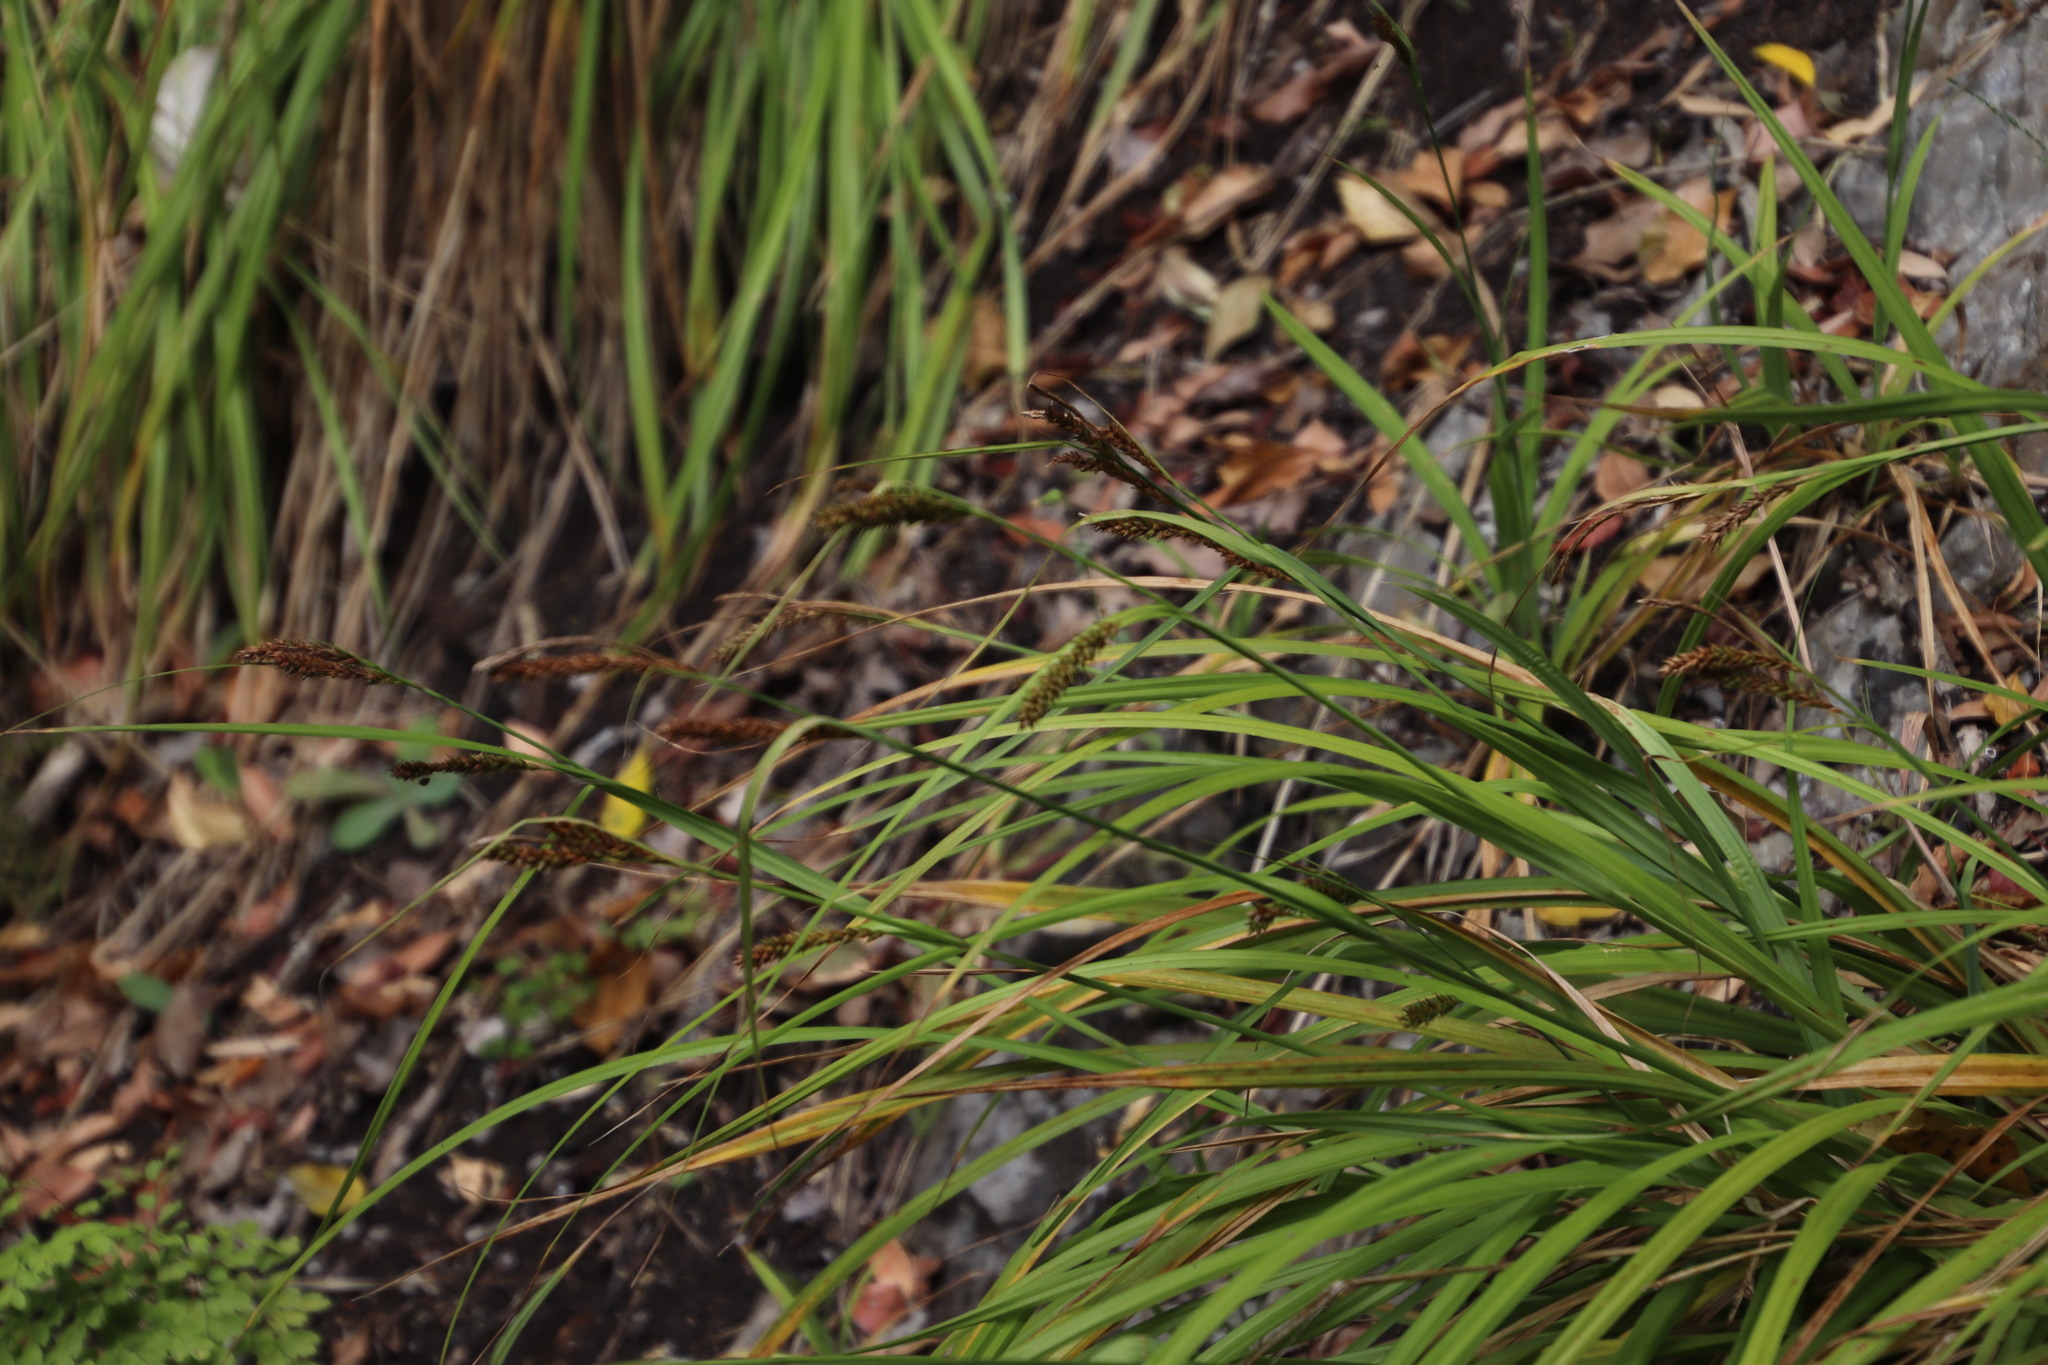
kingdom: Plantae
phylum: Tracheophyta
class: Liliopsida
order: Poales
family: Cyperaceae
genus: Carex
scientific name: Carex aethiopica
